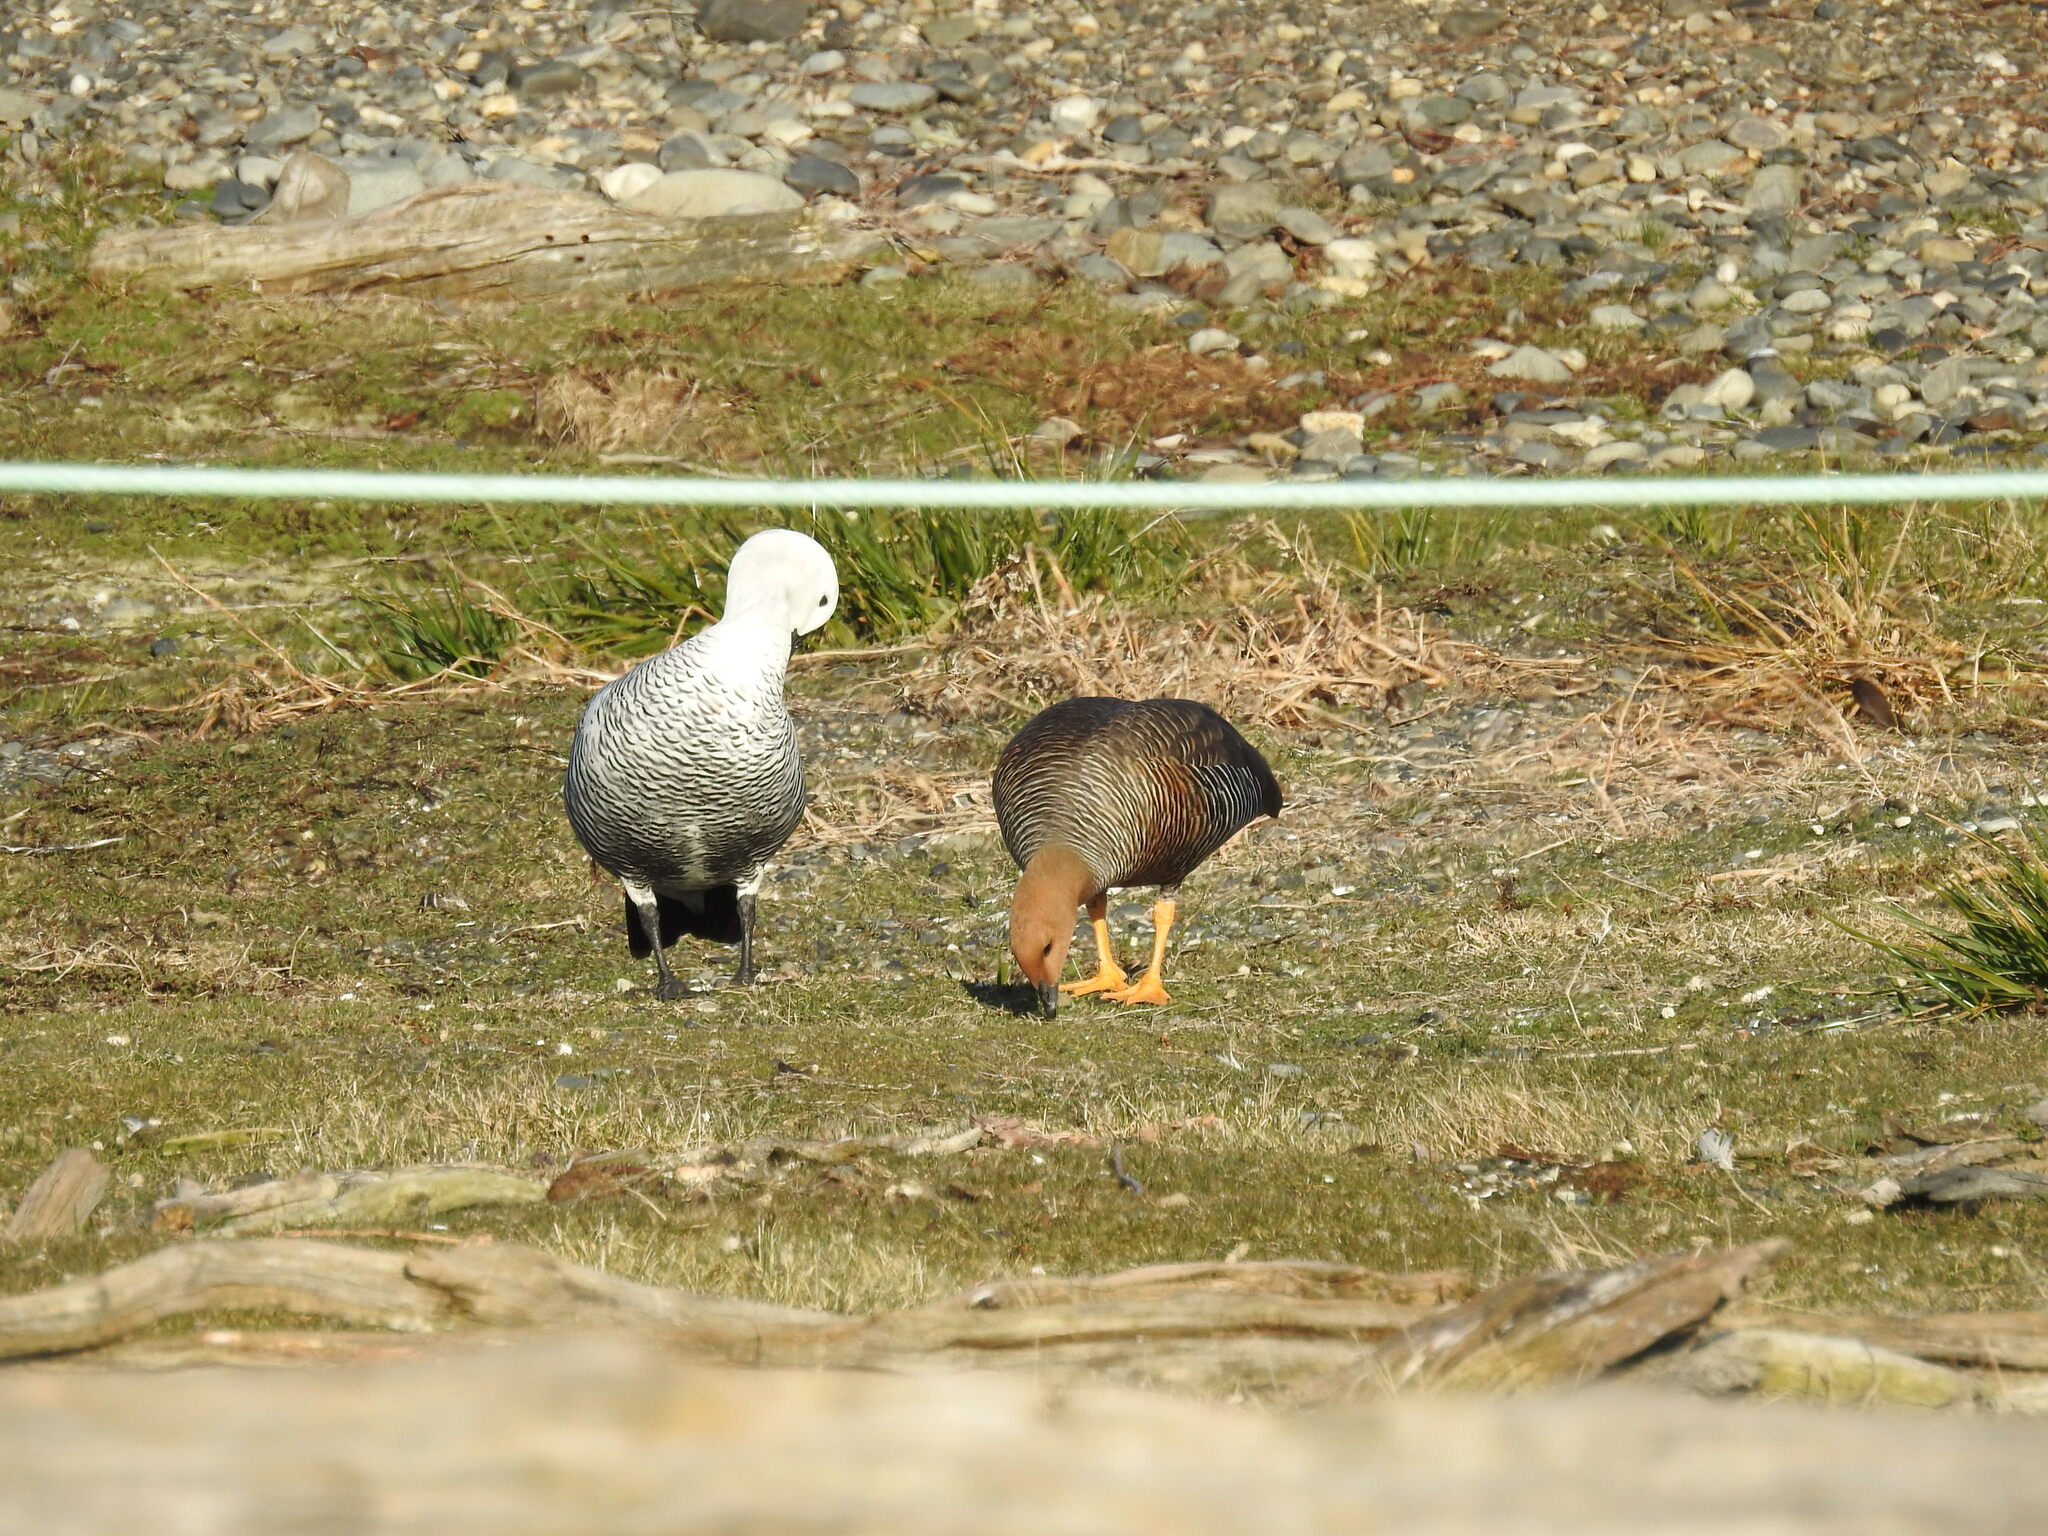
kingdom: Animalia
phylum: Chordata
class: Aves
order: Anseriformes
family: Anatidae
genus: Chloephaga
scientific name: Chloephaga picta
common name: Upland goose
